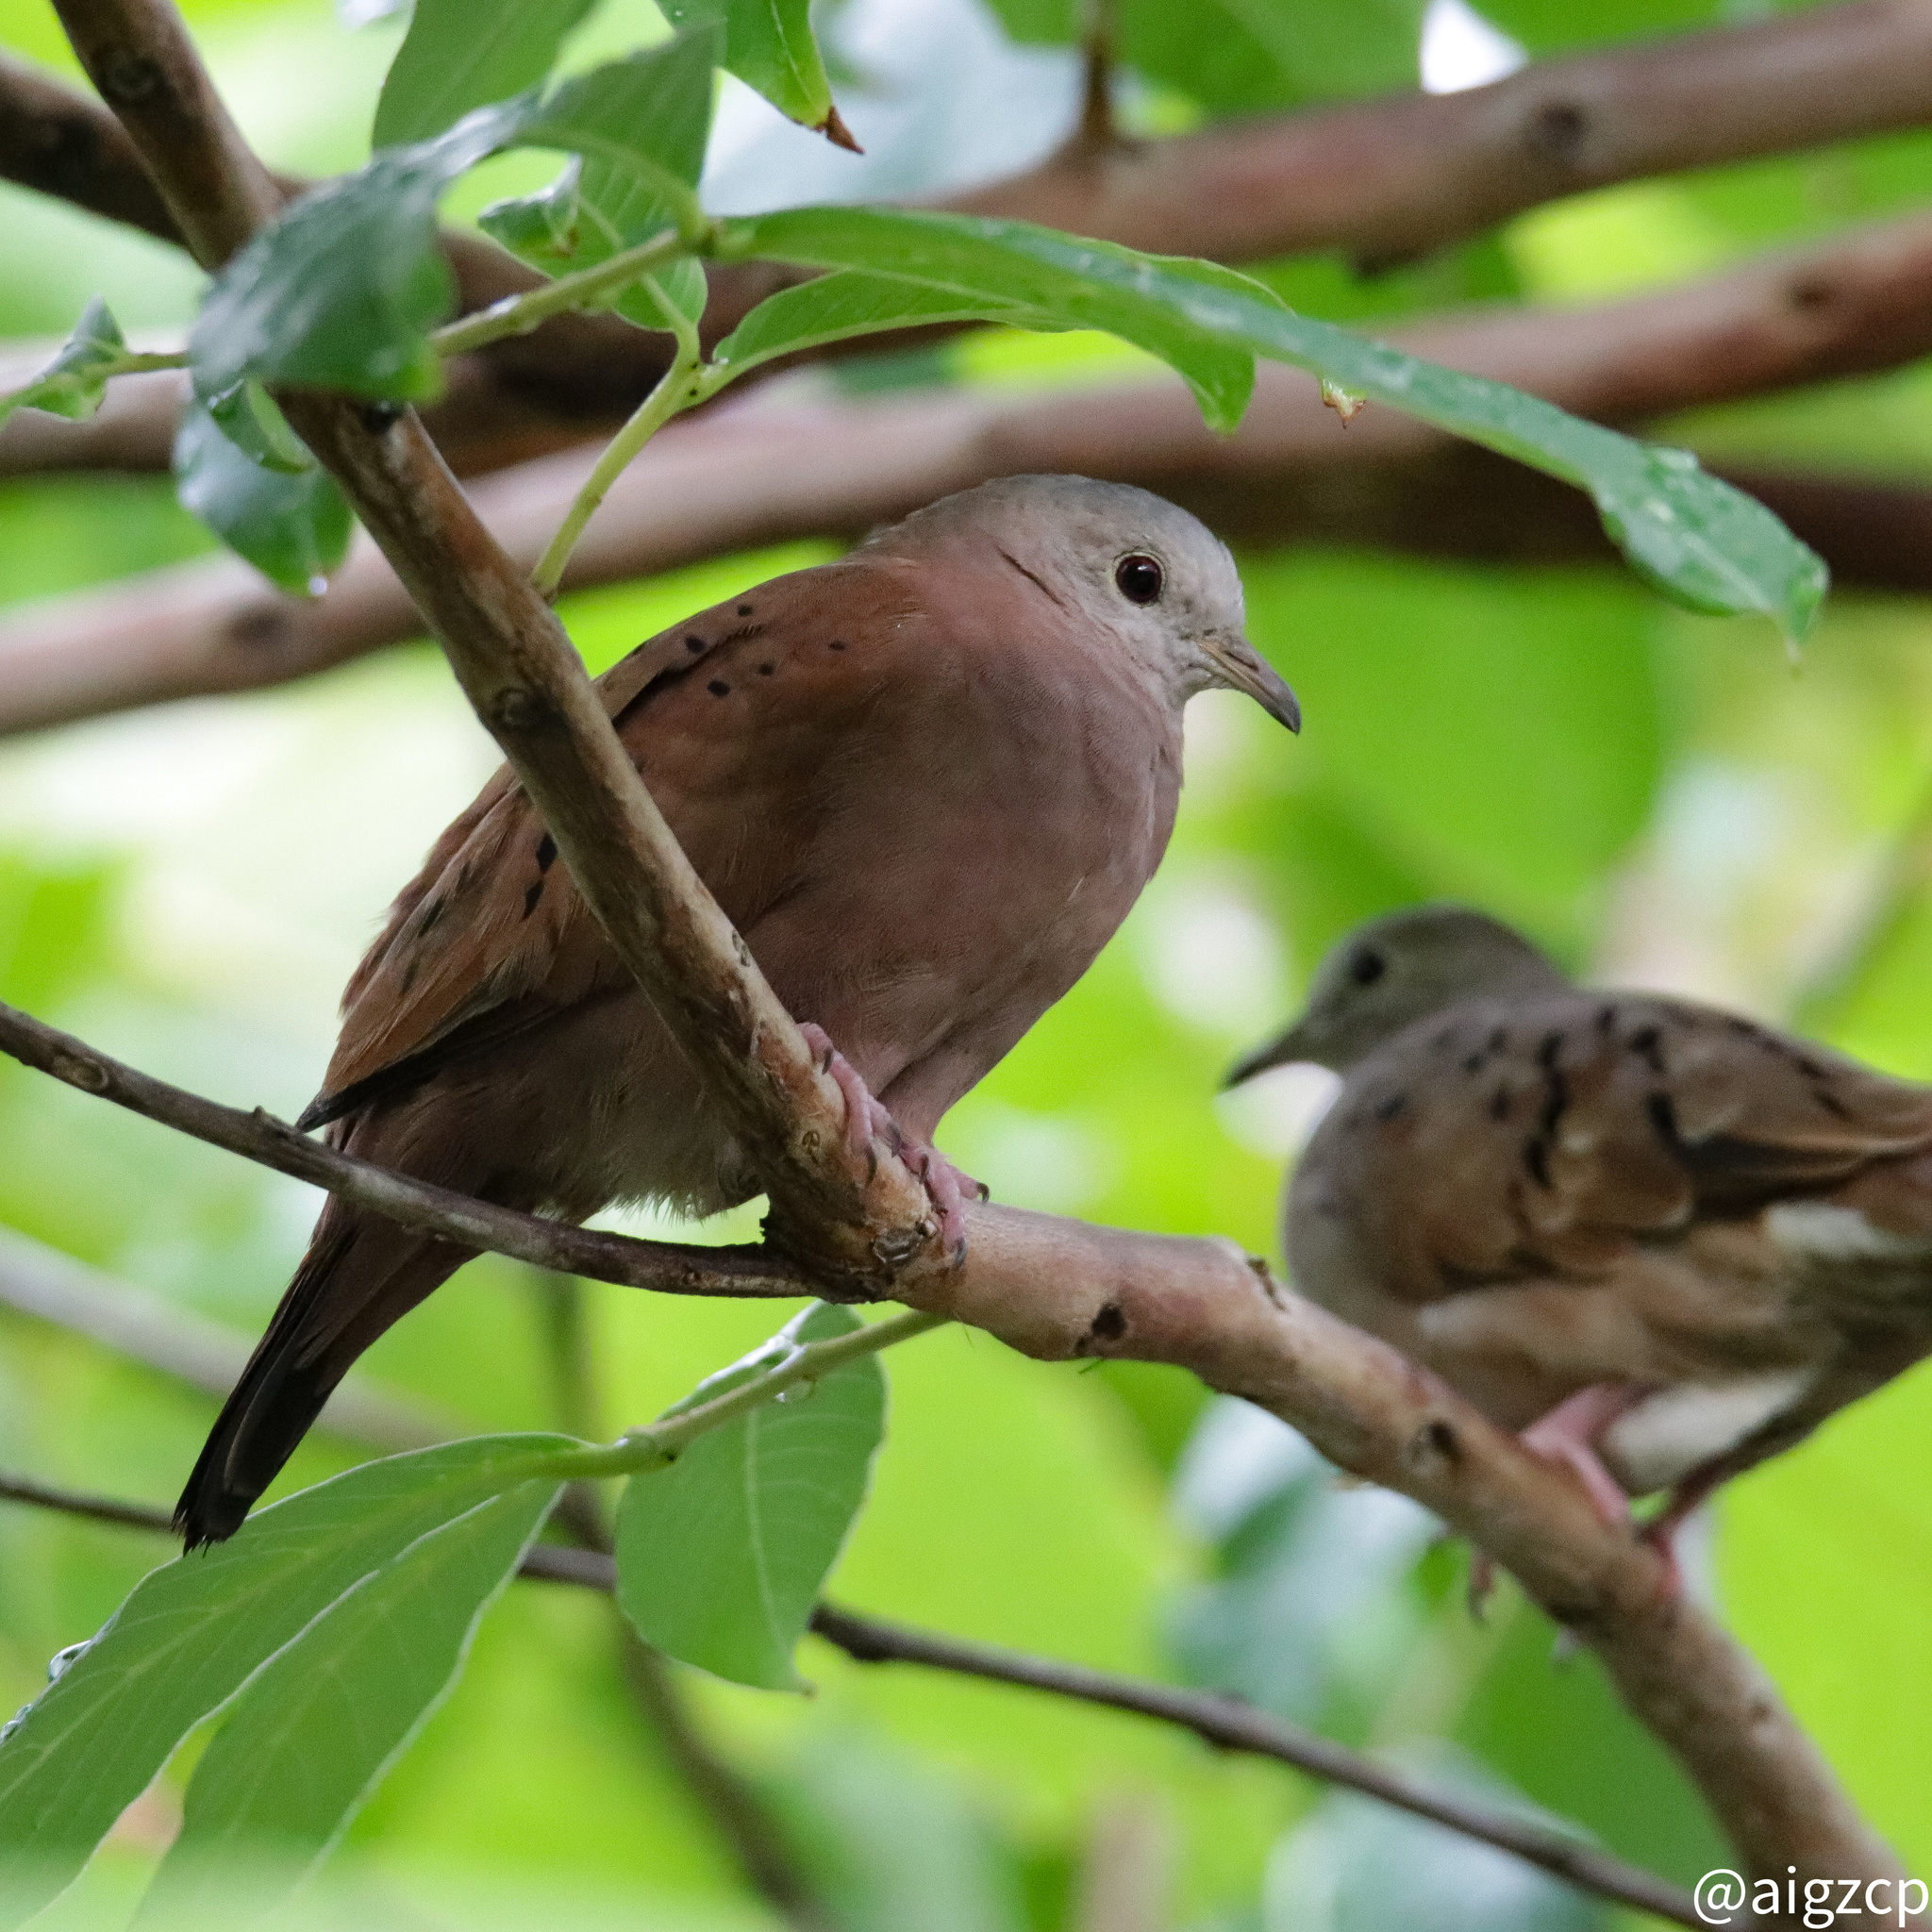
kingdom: Animalia
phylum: Chordata
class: Aves
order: Columbiformes
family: Columbidae
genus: Columbina
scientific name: Columbina talpacoti
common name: Ruddy ground dove
